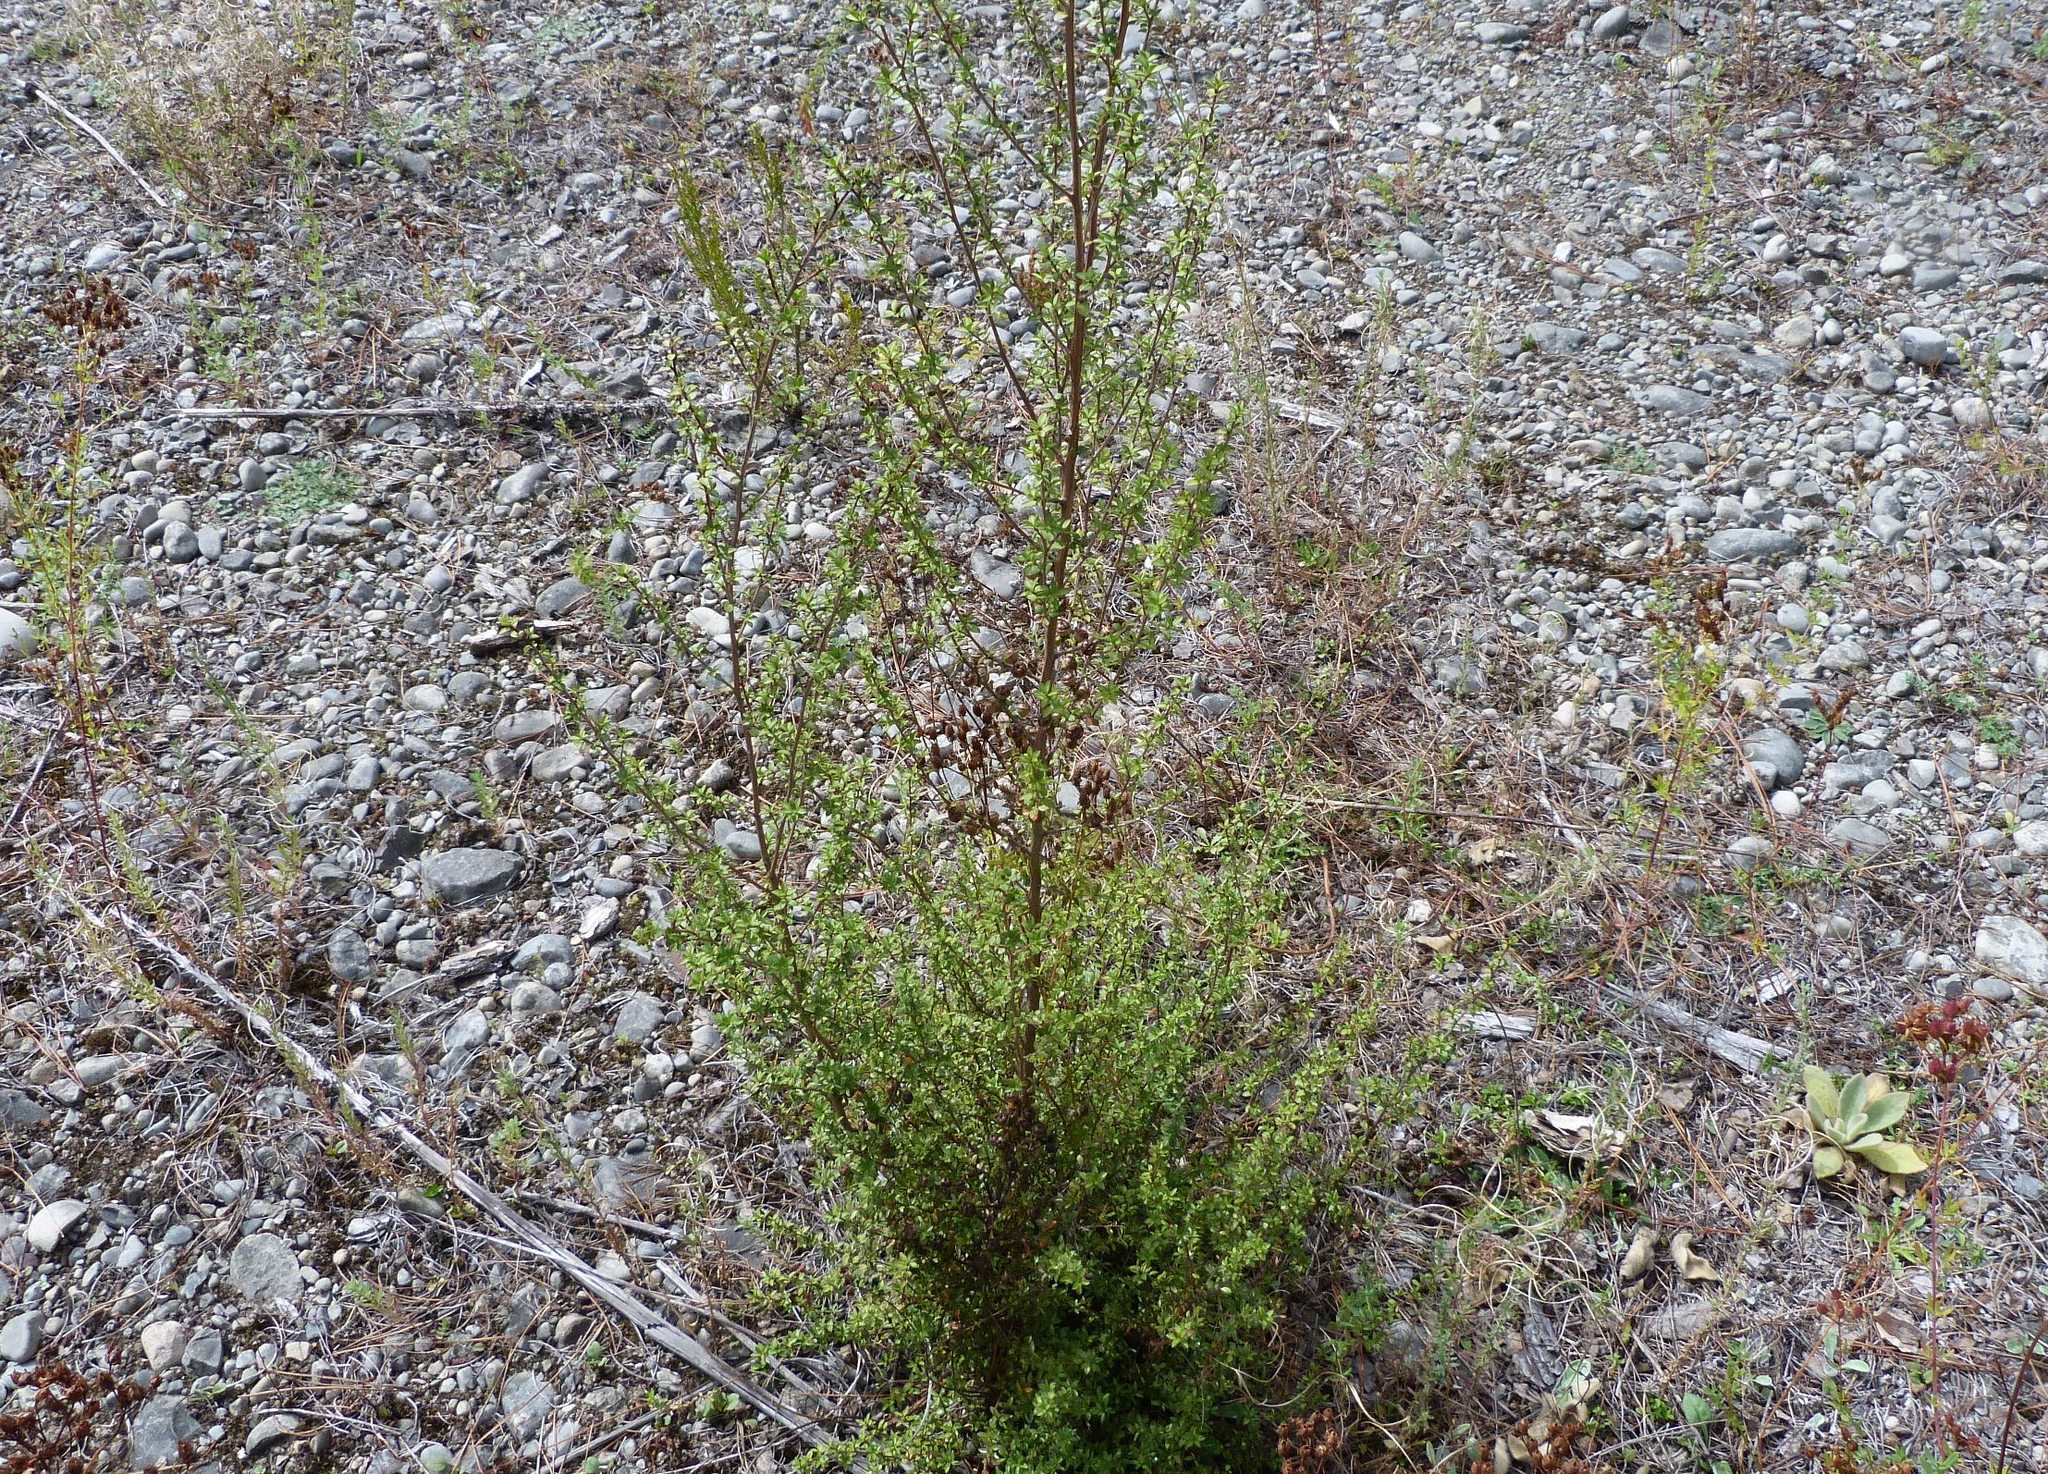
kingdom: Plantae
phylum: Tracheophyta
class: Magnoliopsida
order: Myrtales
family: Myrtaceae
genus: Leptospermum
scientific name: Leptospermum scoparium
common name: Broom tea-tree
